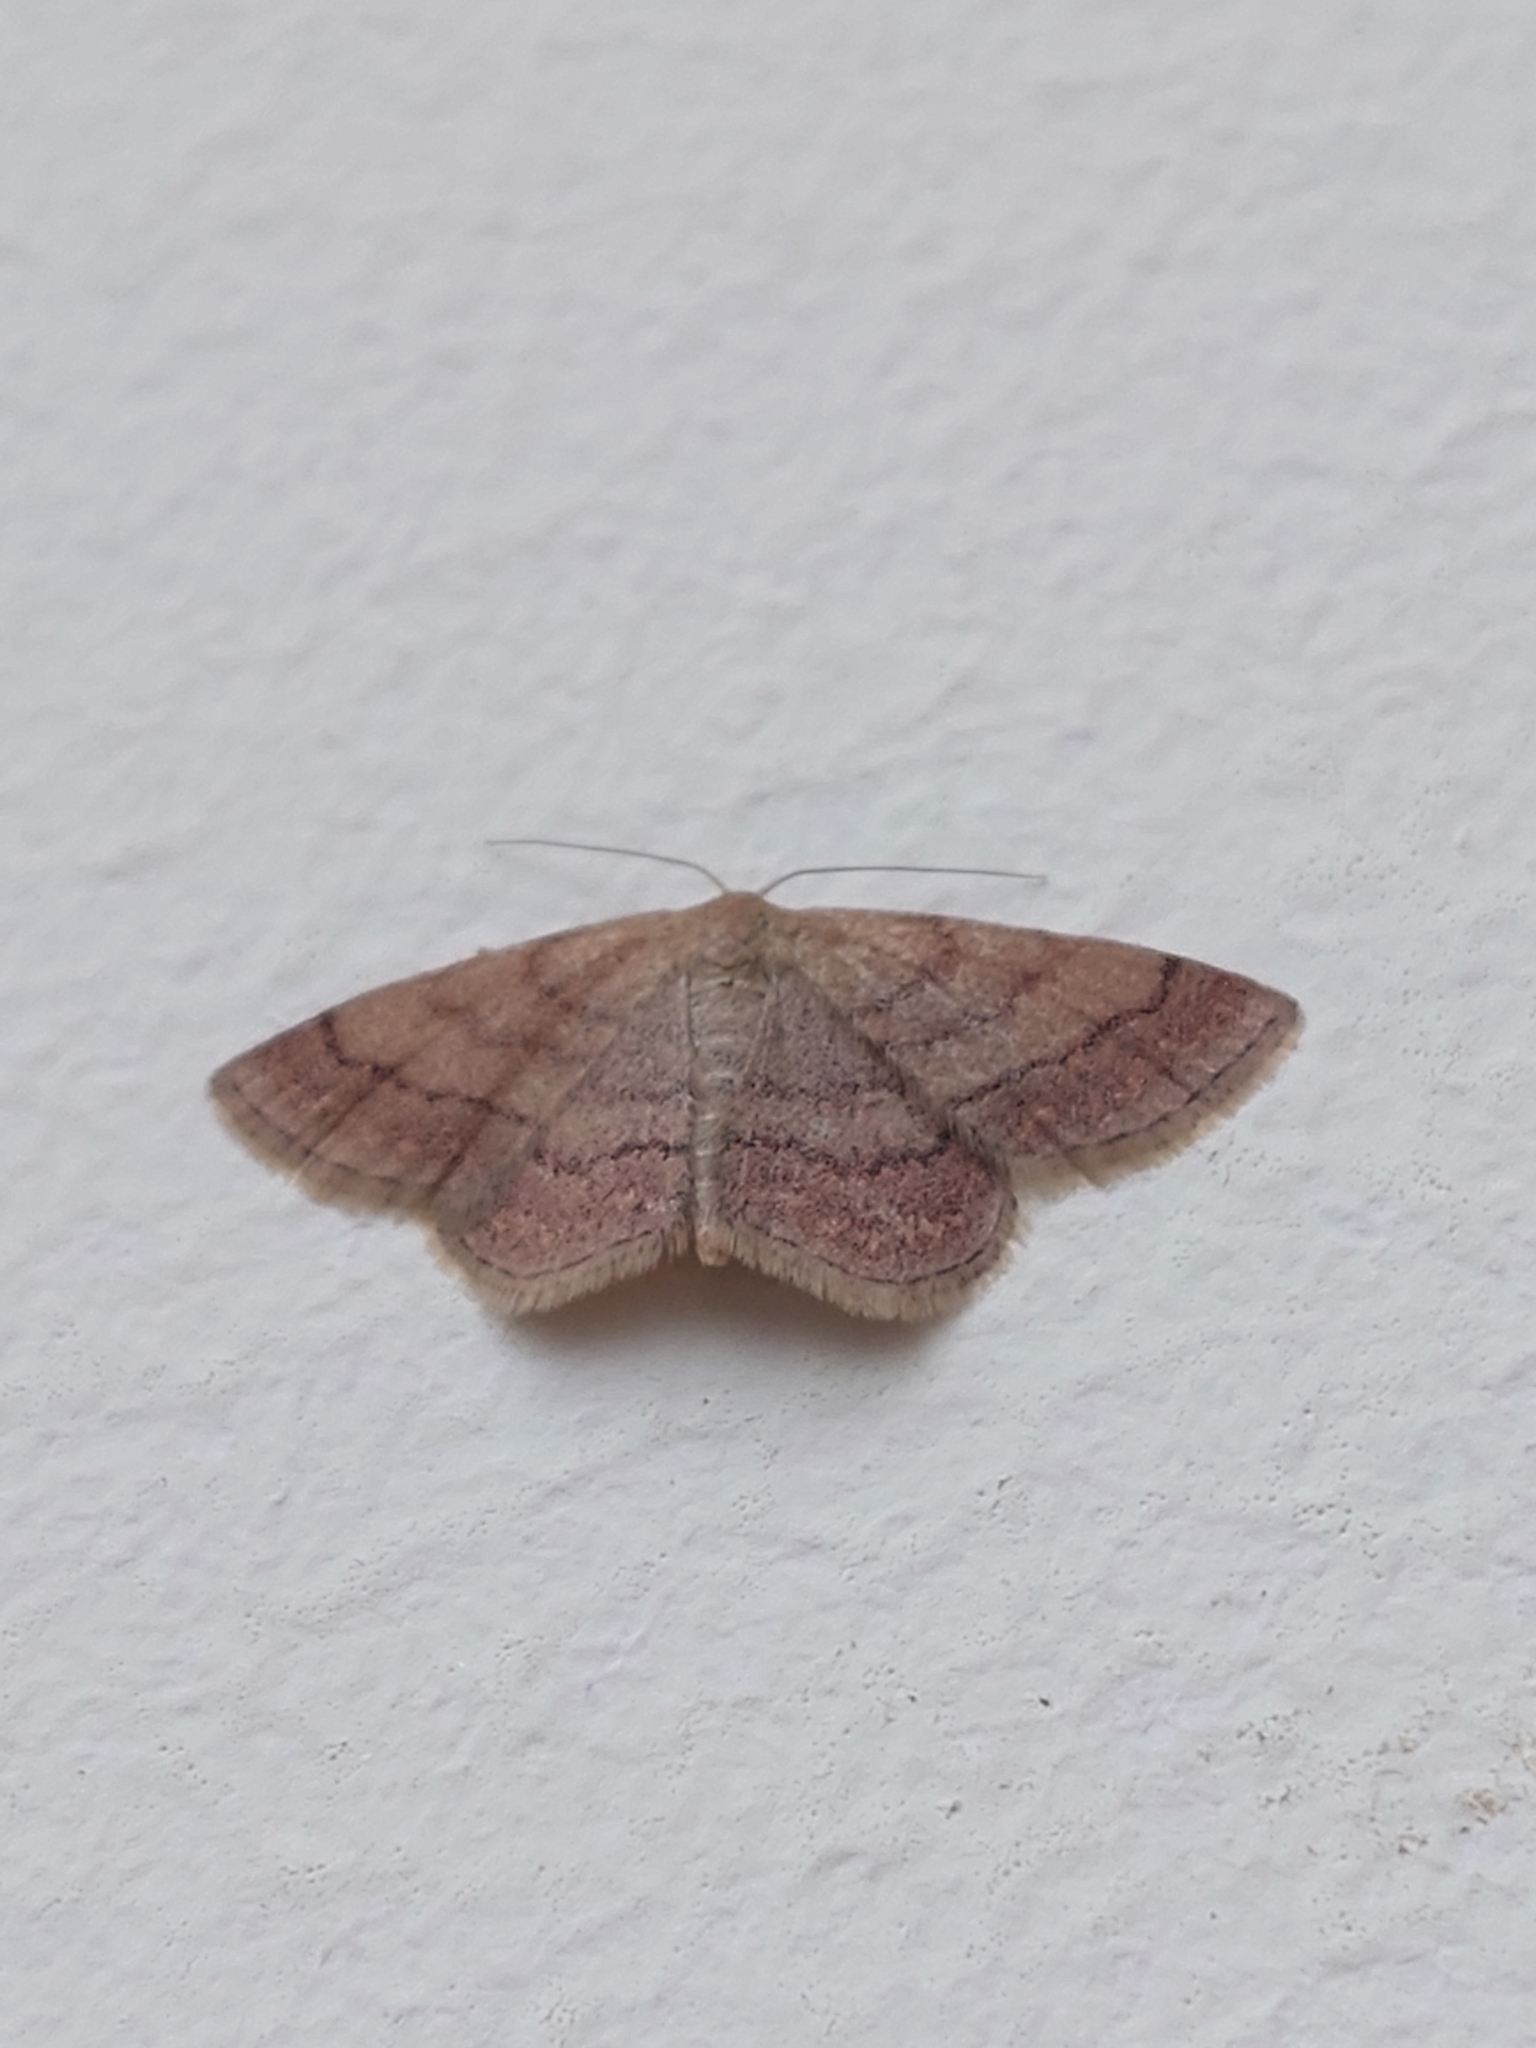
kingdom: Animalia
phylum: Arthropoda
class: Insecta
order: Lepidoptera
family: Geometridae
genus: Scopula
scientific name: Scopula rubiginata
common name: Tawny wave
